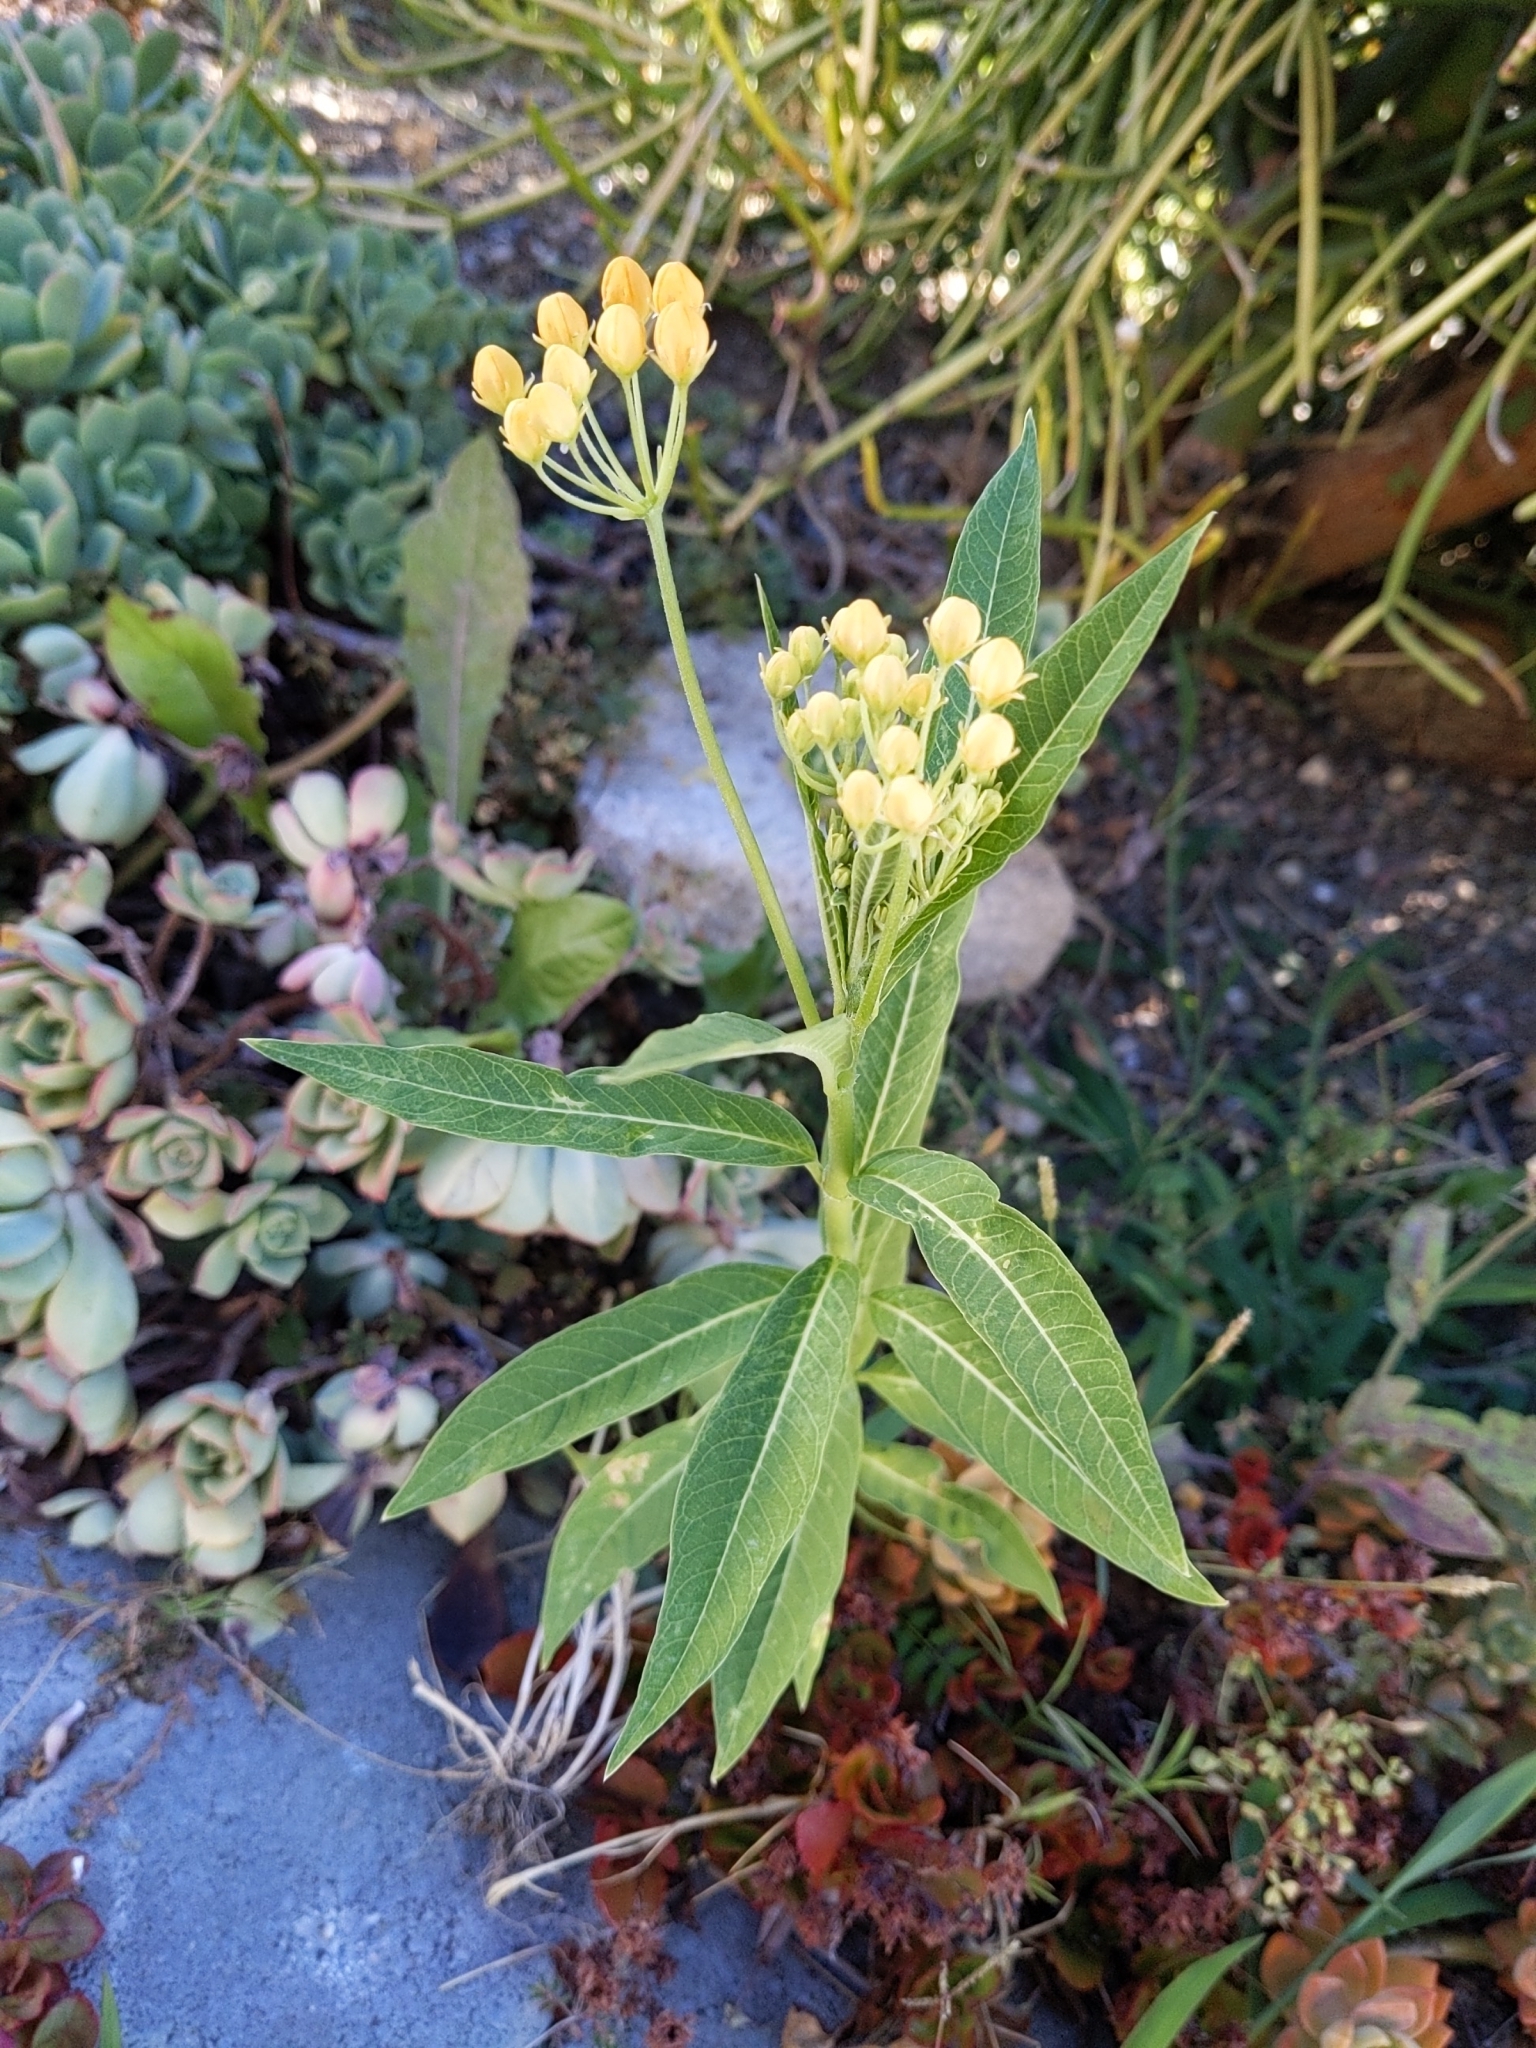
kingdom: Plantae
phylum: Tracheophyta
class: Magnoliopsida
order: Gentianales
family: Apocynaceae
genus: Asclepias
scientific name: Asclepias curassavica
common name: Bloodflower
